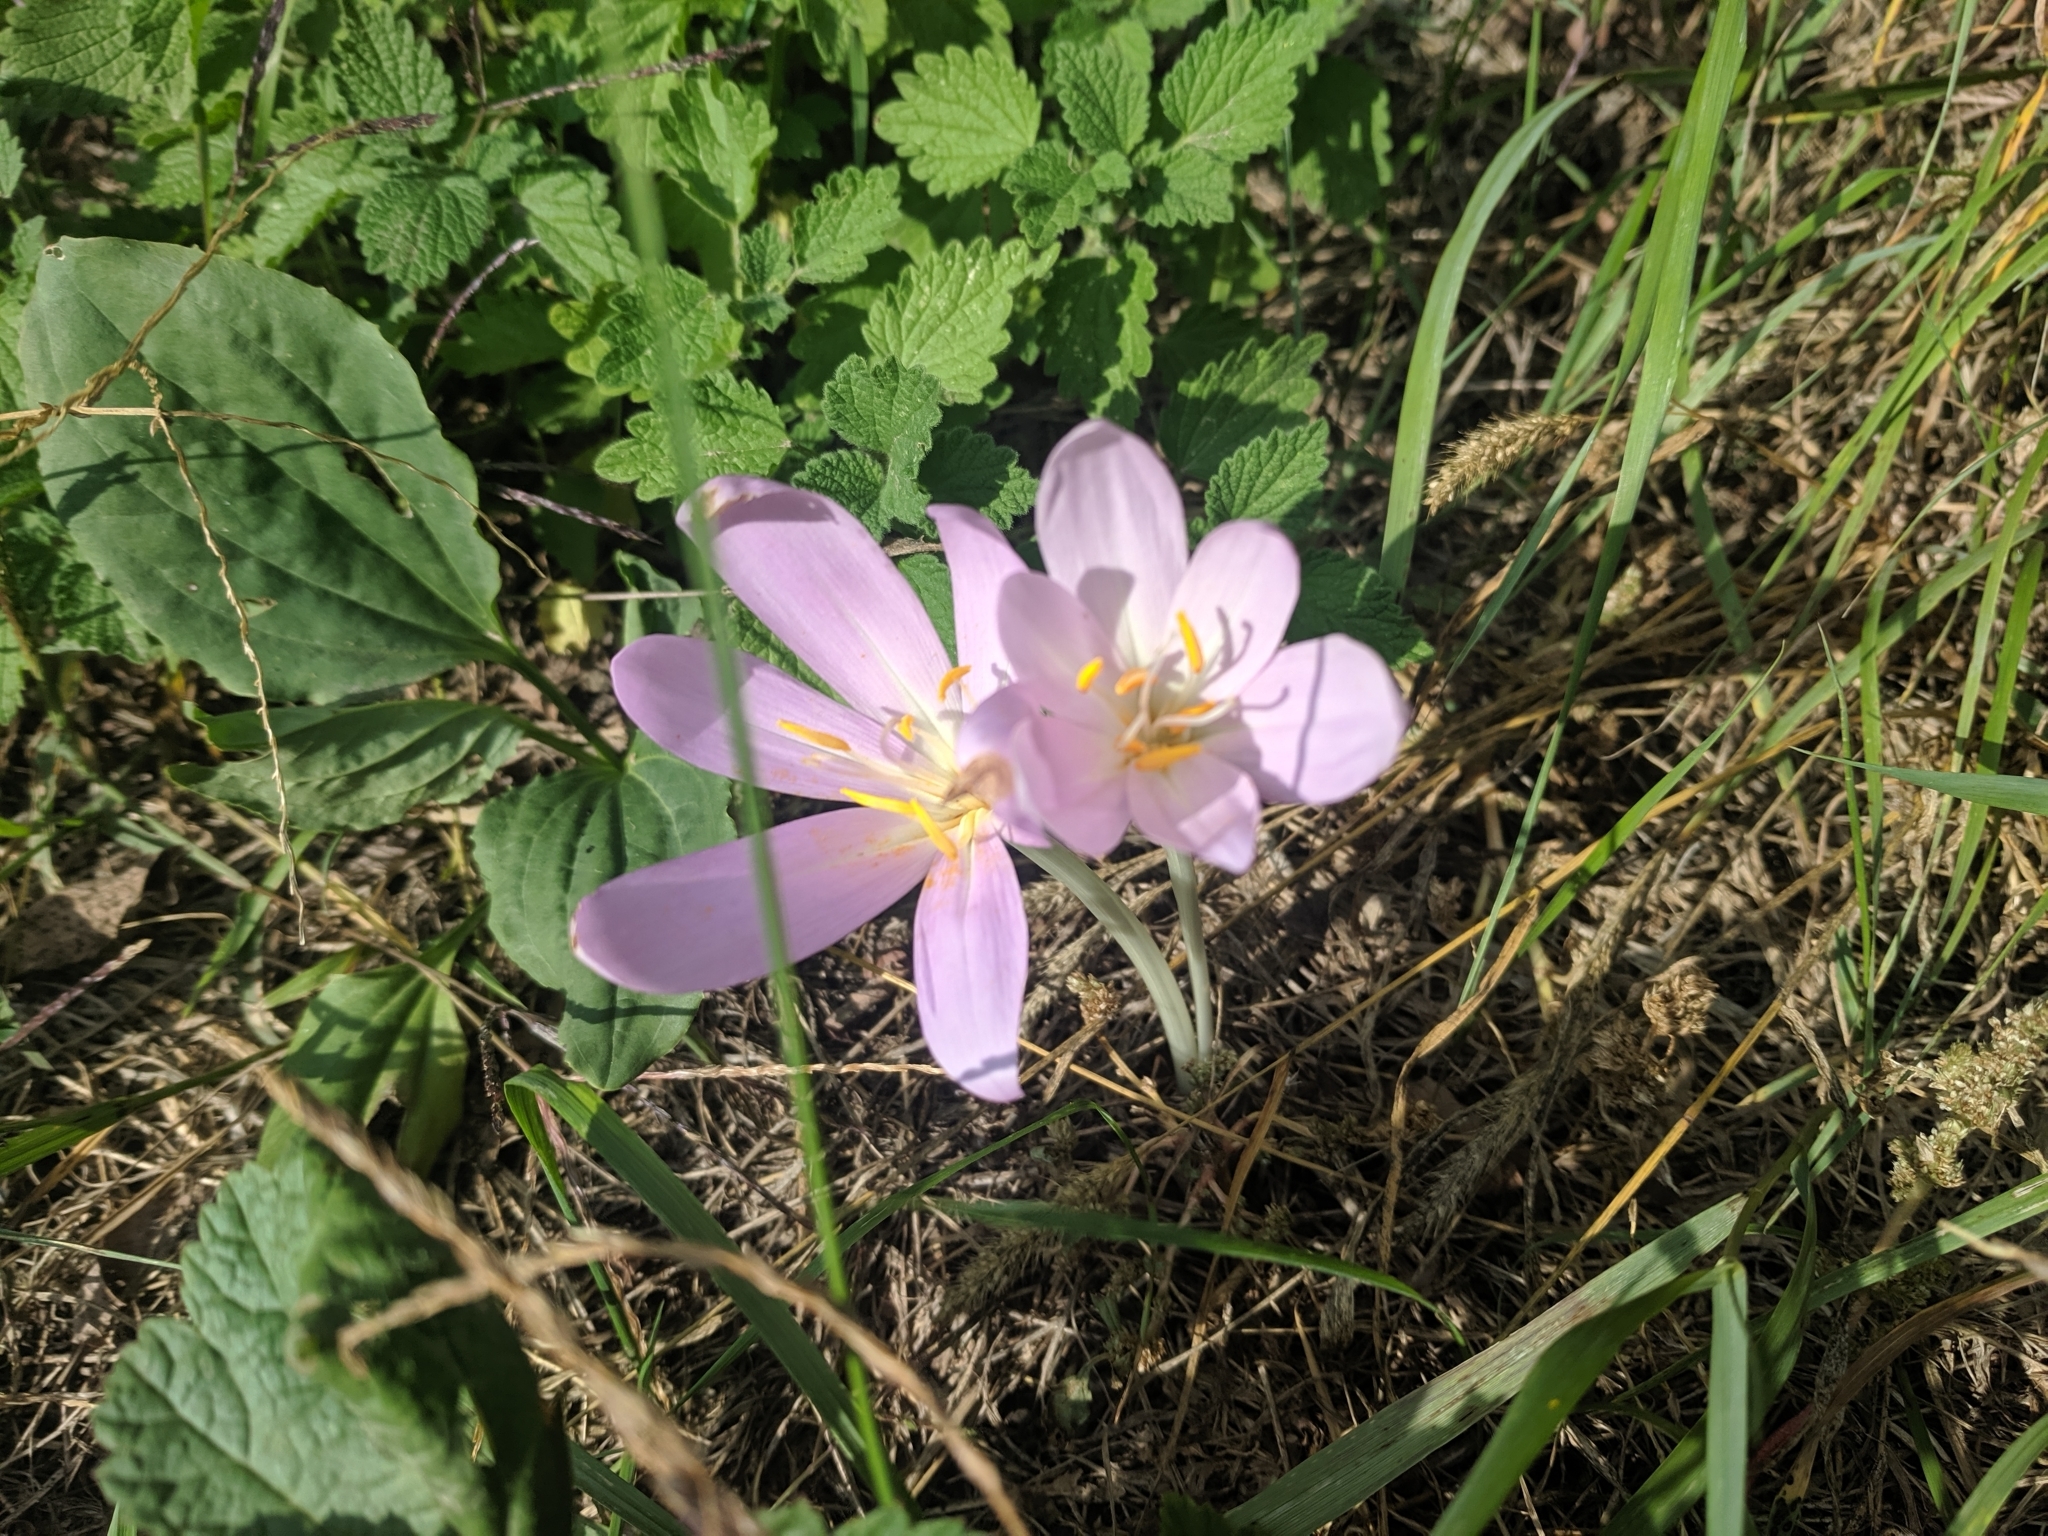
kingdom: Plantae
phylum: Tracheophyta
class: Liliopsida
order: Liliales
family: Colchicaceae
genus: Colchicum
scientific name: Colchicum autumnale
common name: Autumn crocus
